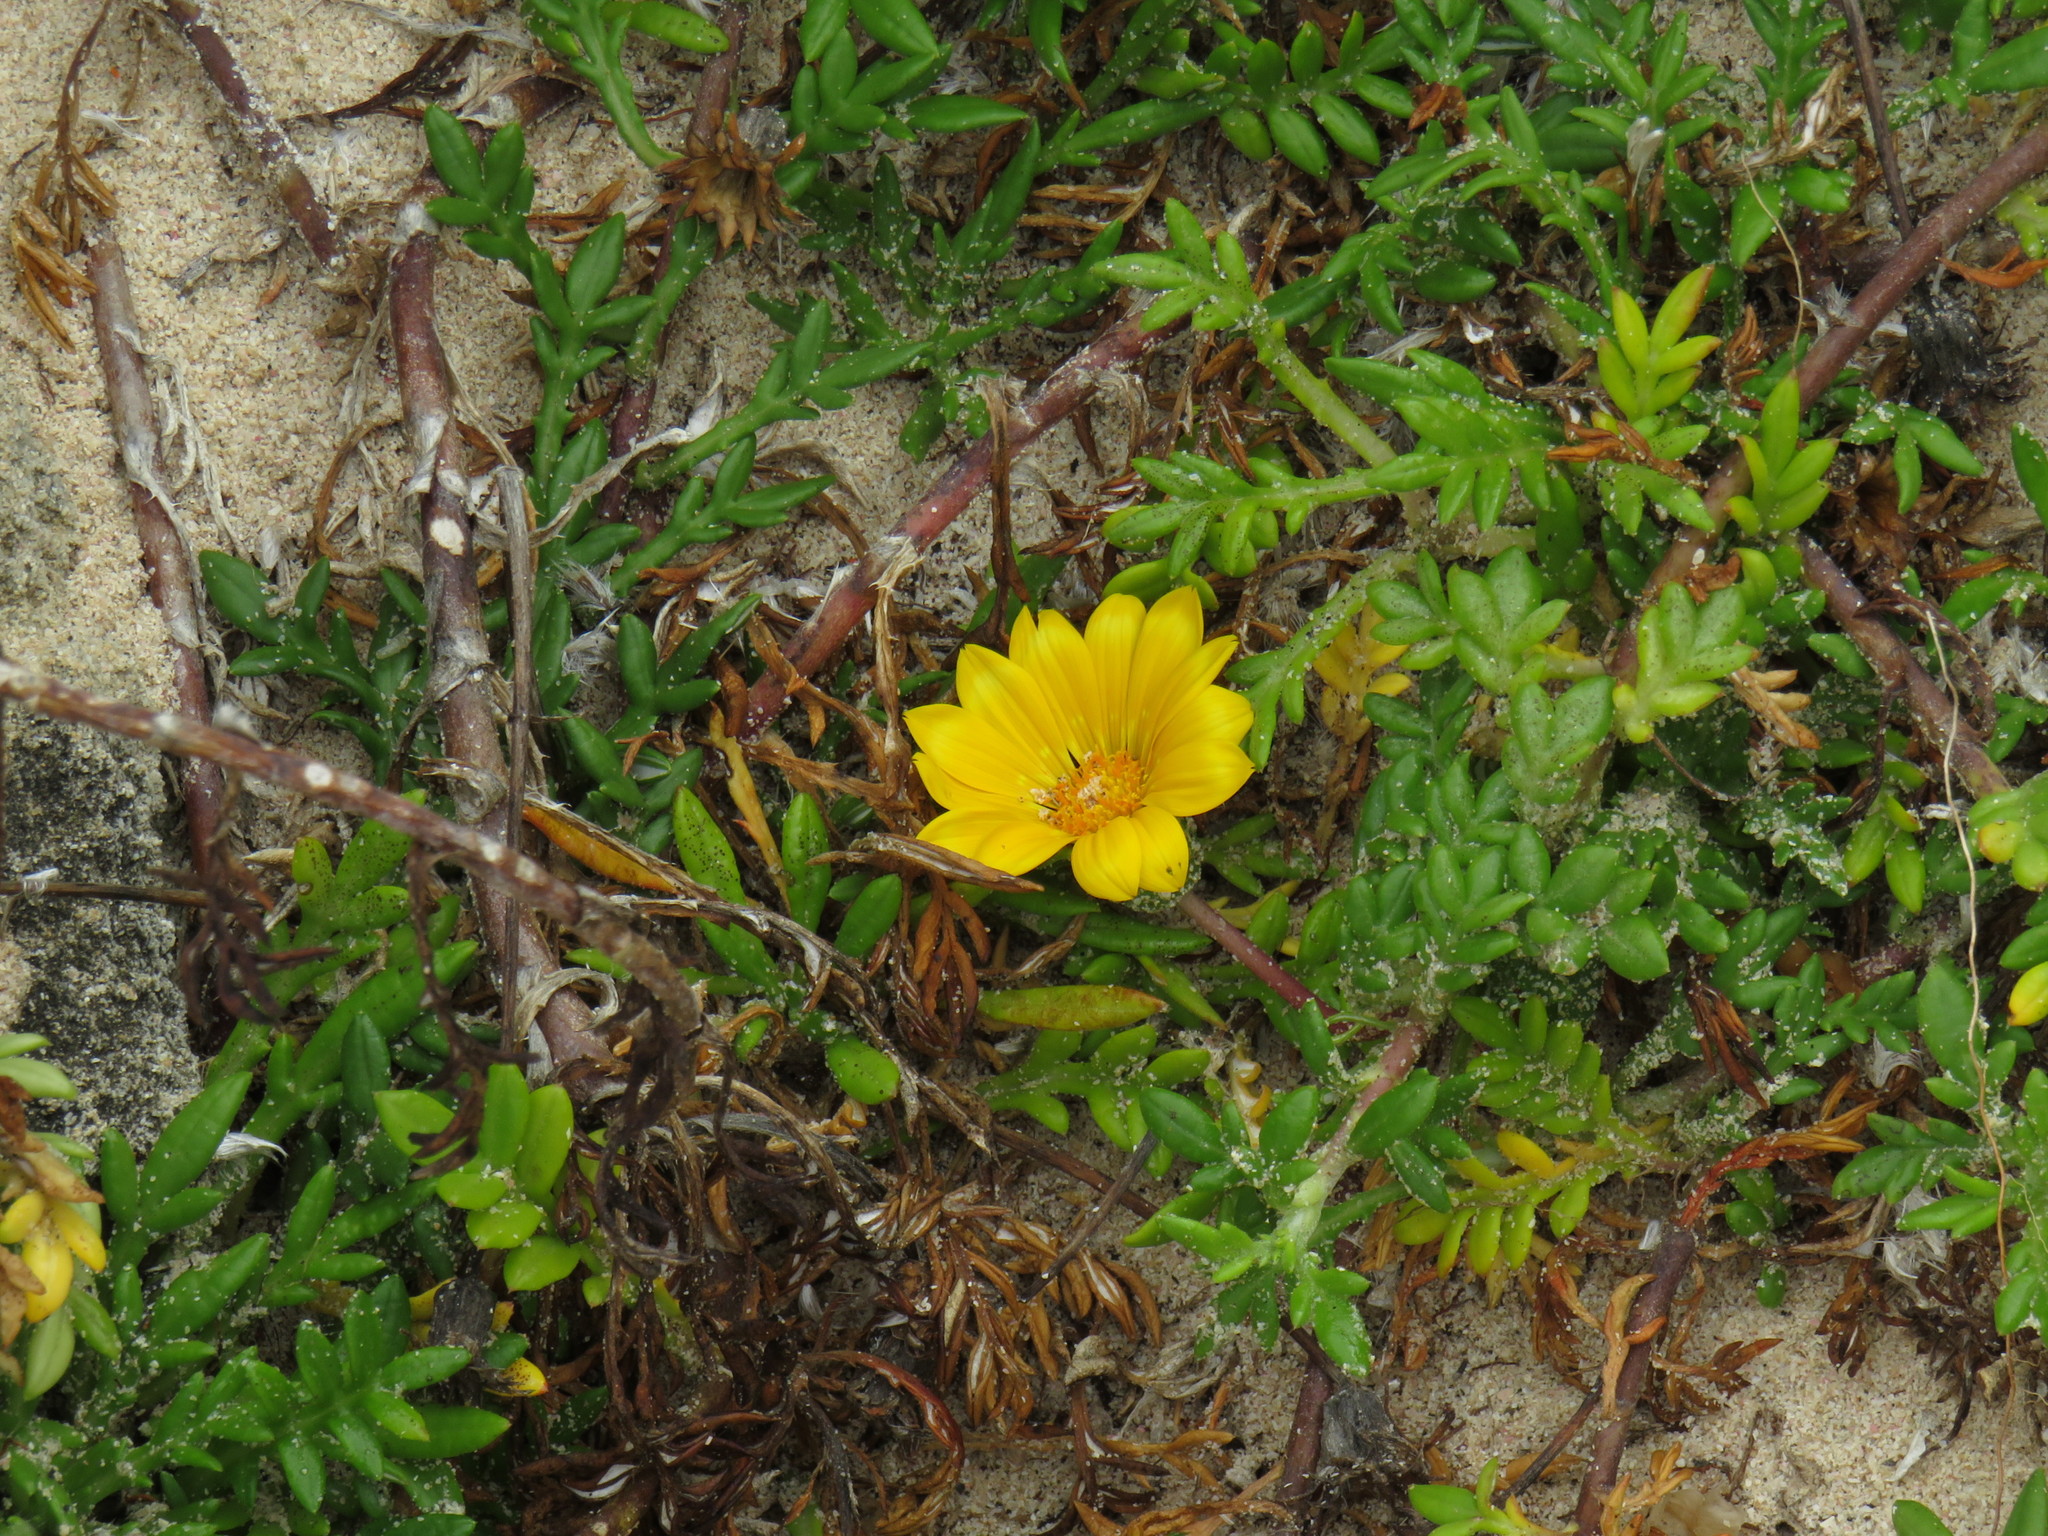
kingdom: Plantae
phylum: Tracheophyta
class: Magnoliopsida
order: Asterales
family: Asteraceae
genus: Gazania
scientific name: Gazania maritima
